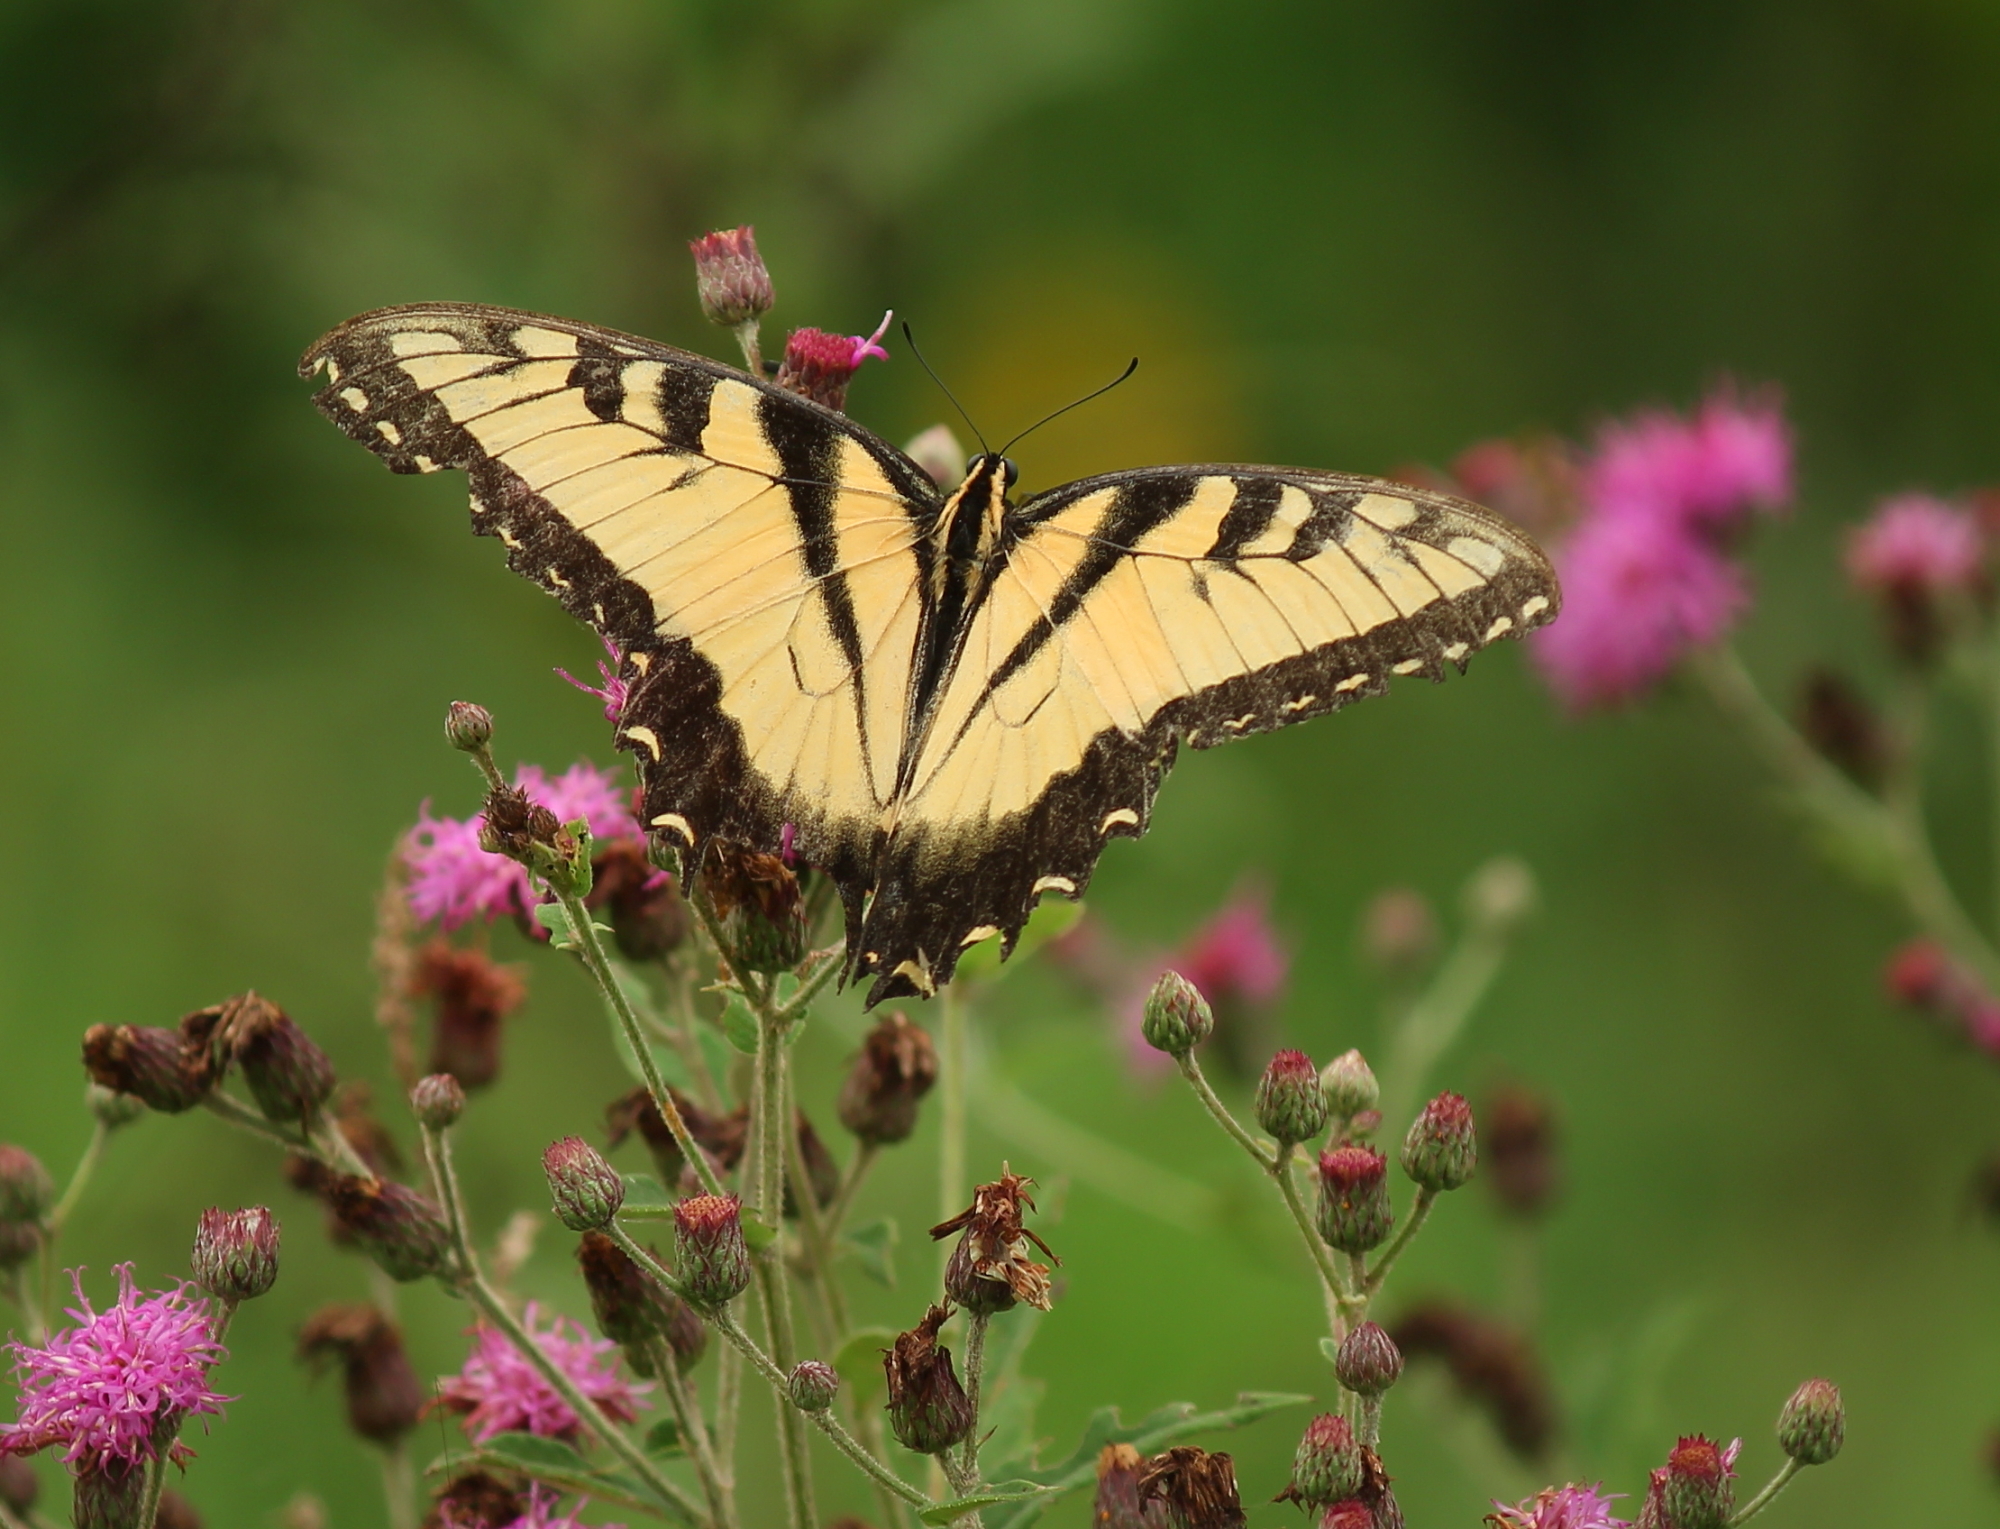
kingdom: Animalia
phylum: Arthropoda
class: Insecta
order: Lepidoptera
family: Papilionidae
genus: Papilio
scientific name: Papilio glaucus
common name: Tiger swallowtail
